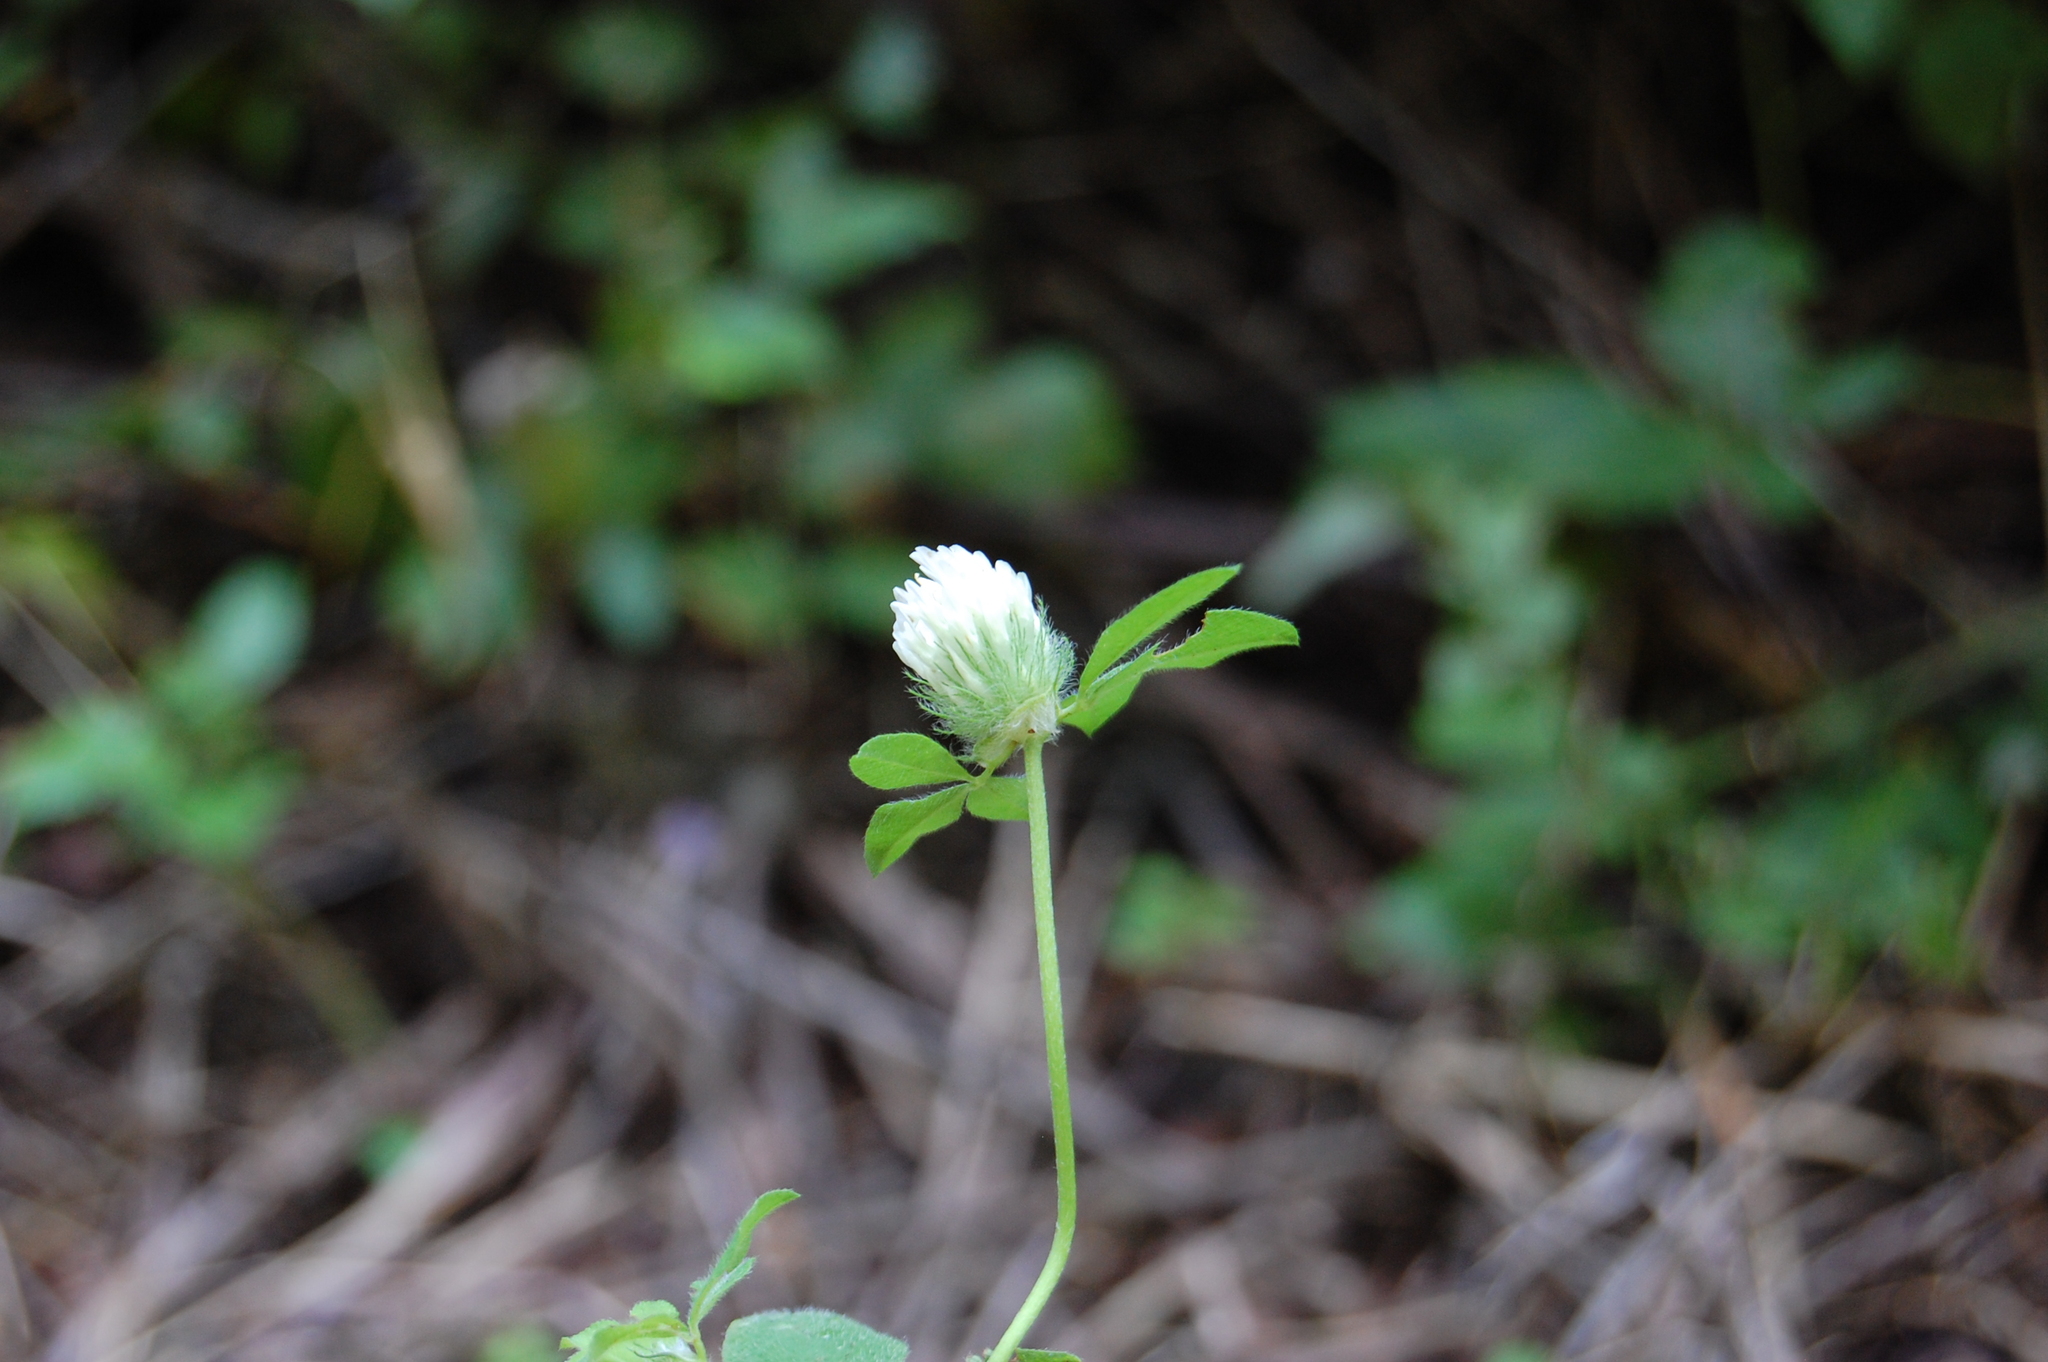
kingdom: Plantae
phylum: Tracheophyta
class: Magnoliopsida
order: Fabales
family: Fabaceae
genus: Trifolium
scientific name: Trifolium pallidum
